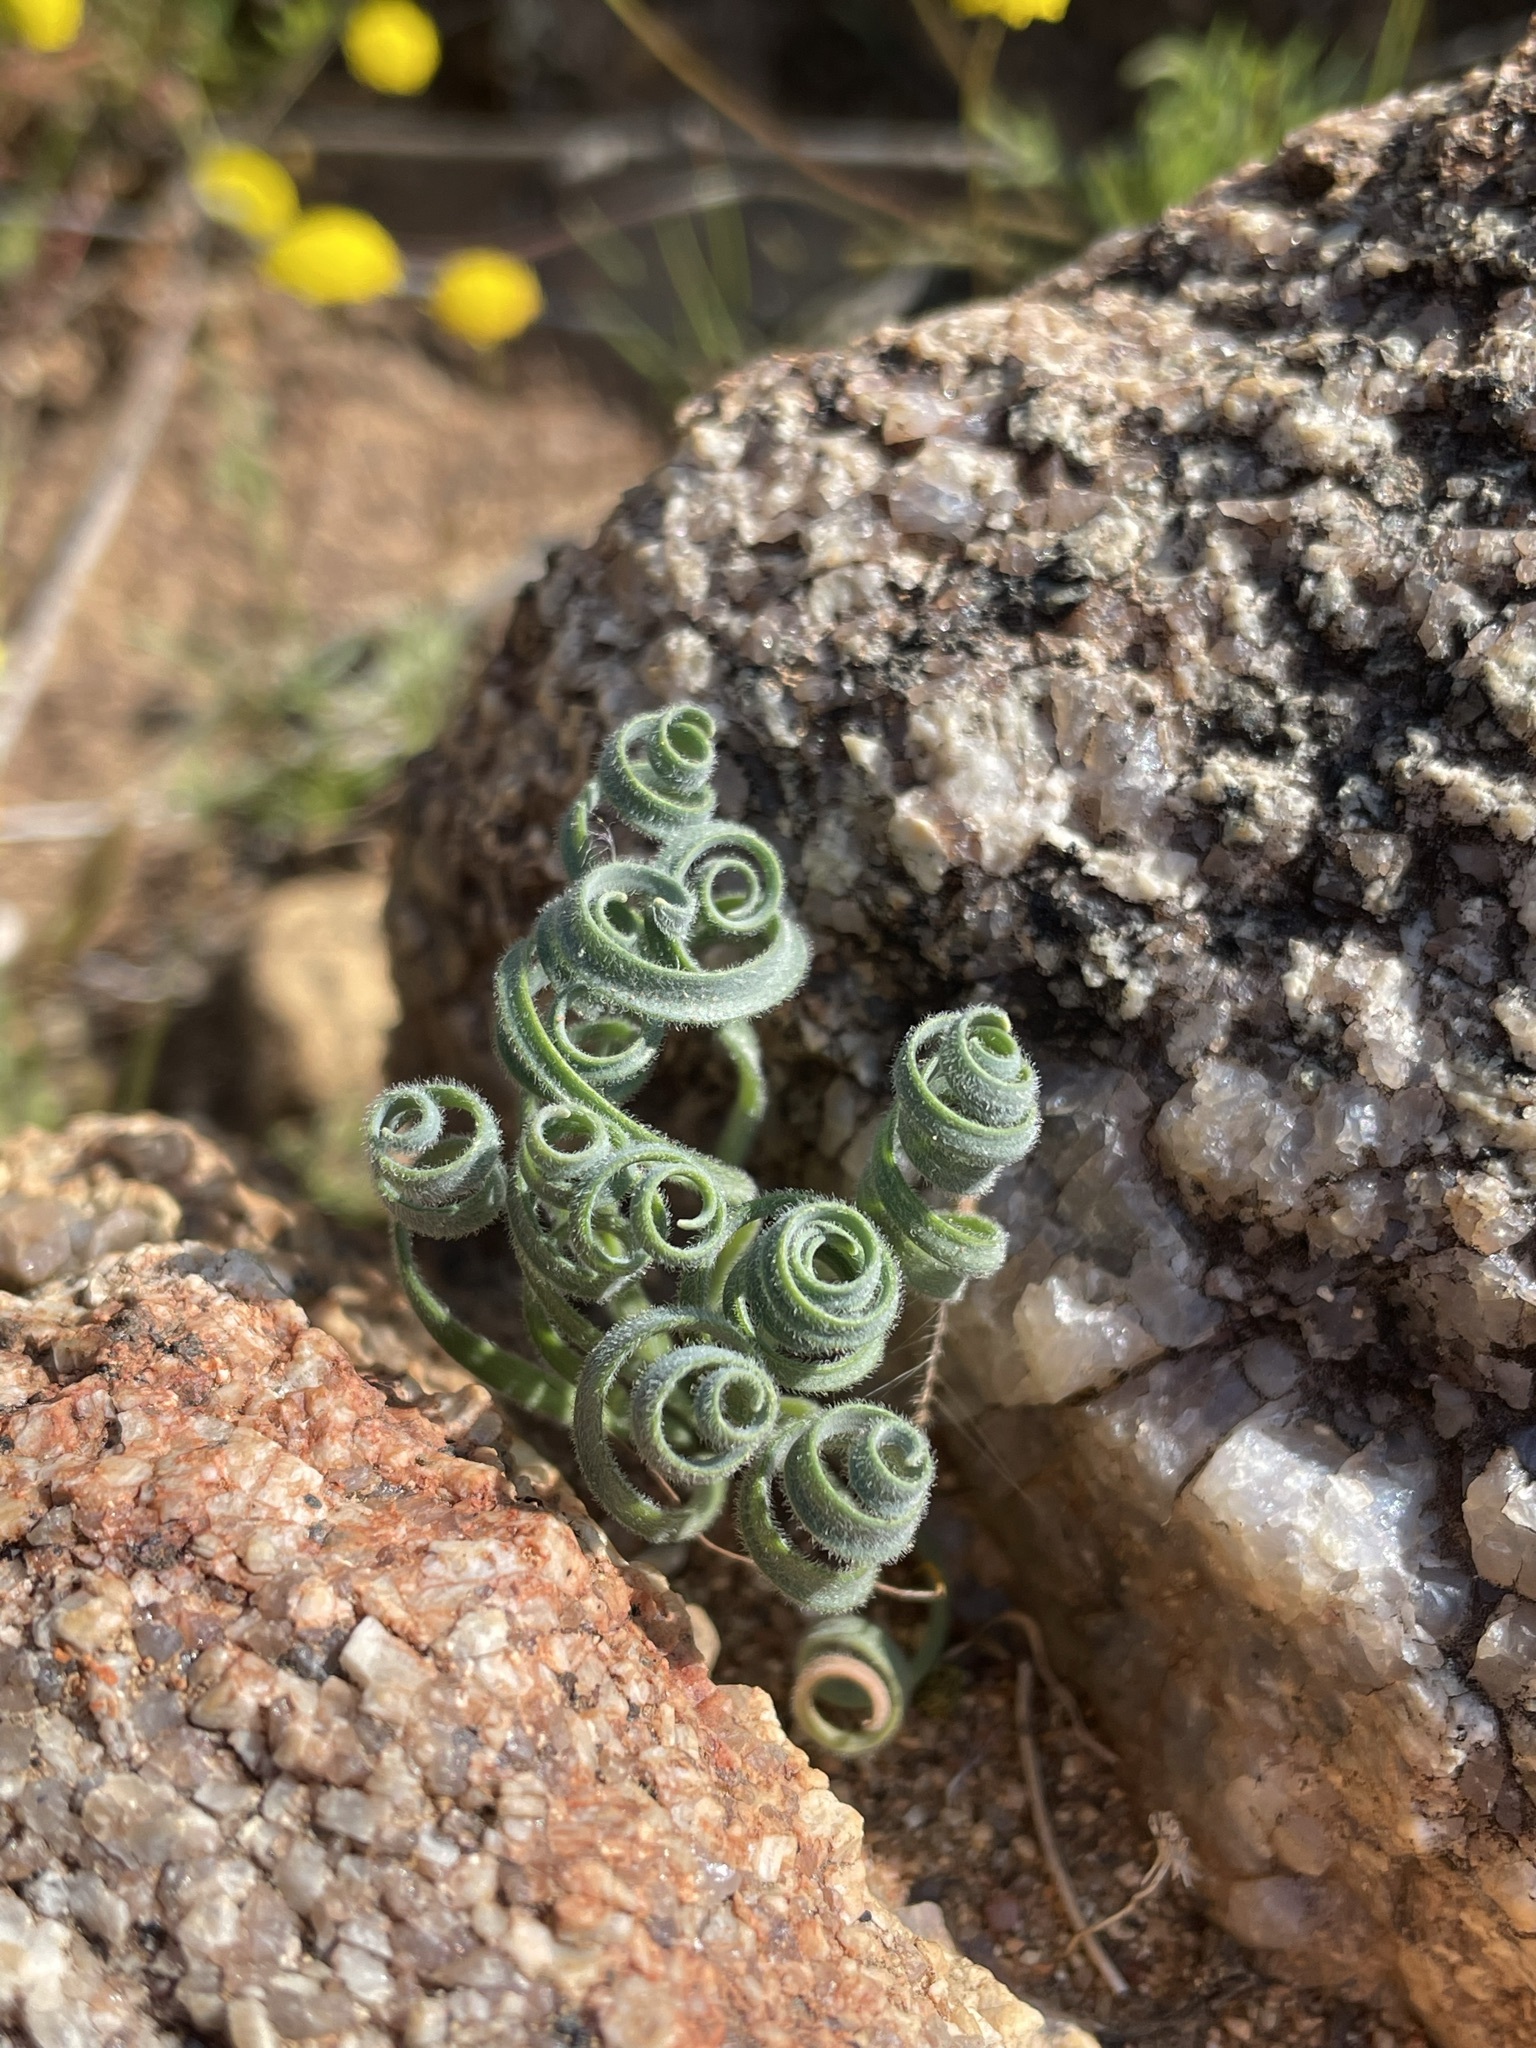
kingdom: Plantae
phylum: Tracheophyta
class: Liliopsida
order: Asparagales
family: Amaryllidaceae
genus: Gethyllis
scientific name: Gethyllis lanuginosa
